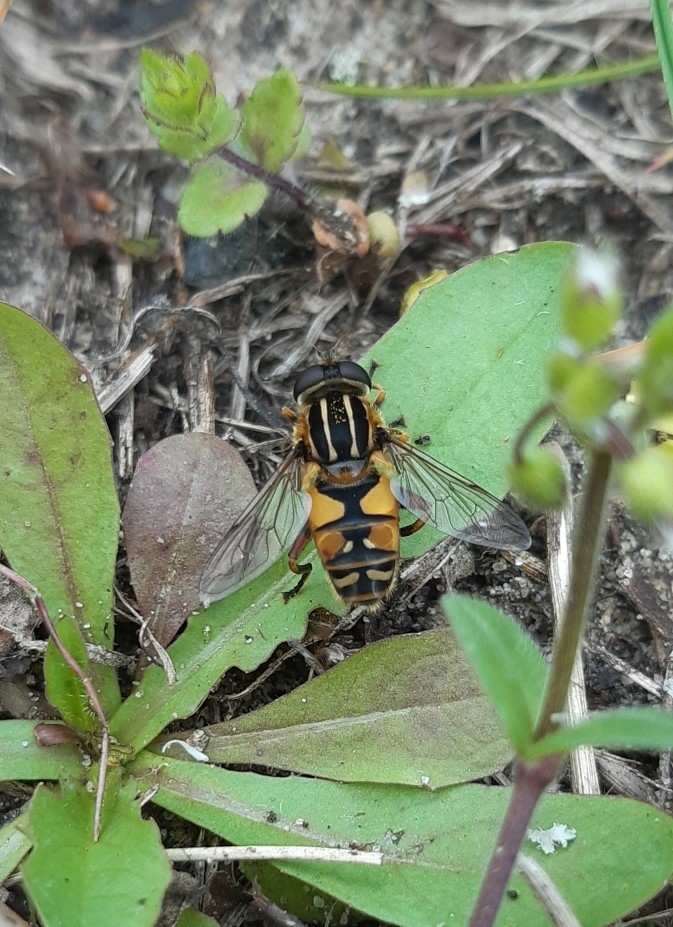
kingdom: Animalia
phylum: Arthropoda
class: Insecta
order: Diptera
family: Syrphidae
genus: Helophilus
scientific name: Helophilus pendulus
